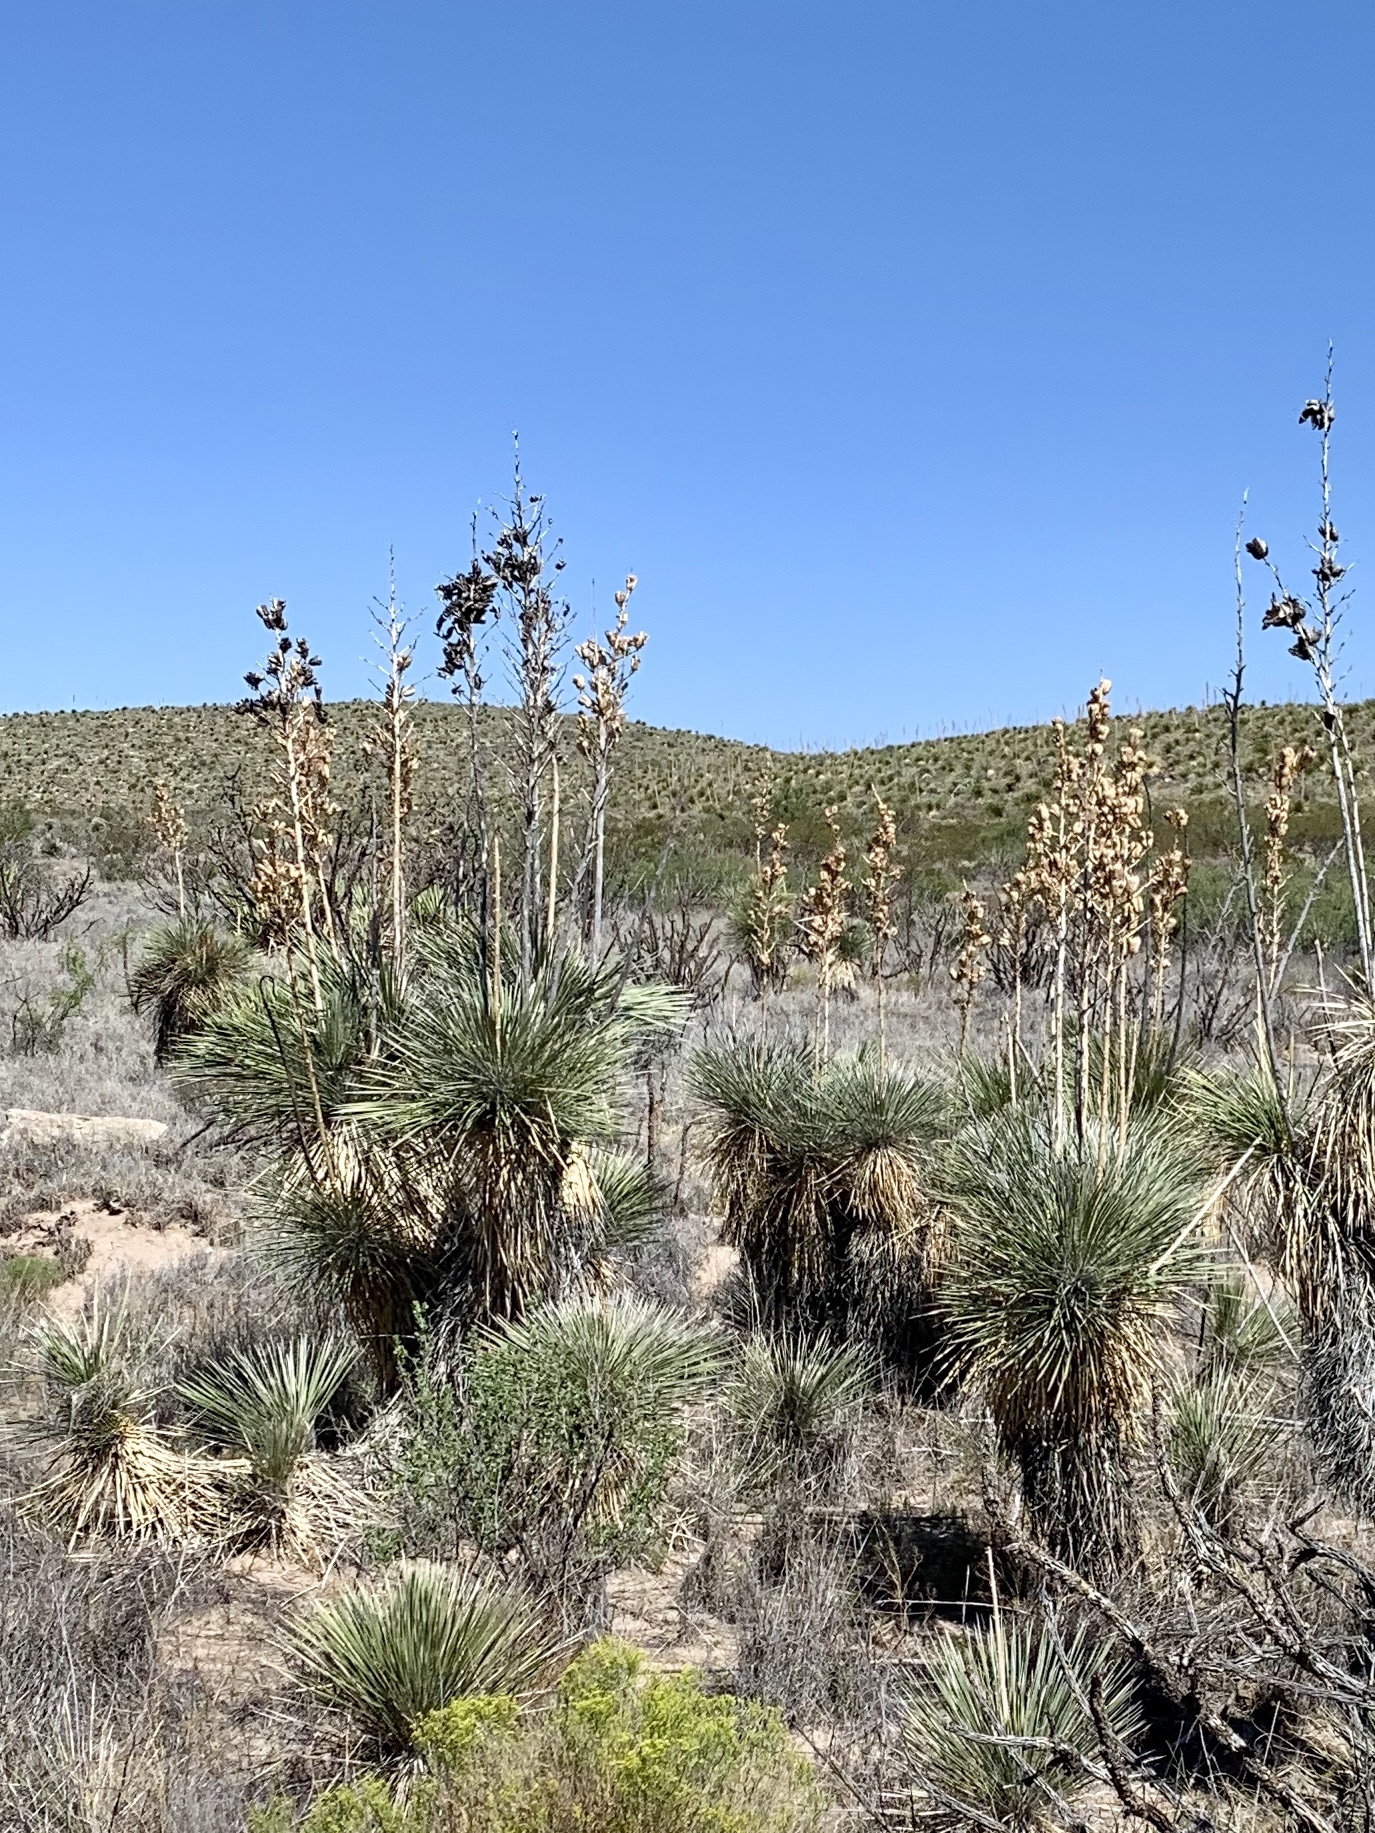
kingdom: Plantae
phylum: Tracheophyta
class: Liliopsida
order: Asparagales
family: Asparagaceae
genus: Yucca
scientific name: Yucca elata
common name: Palmella
